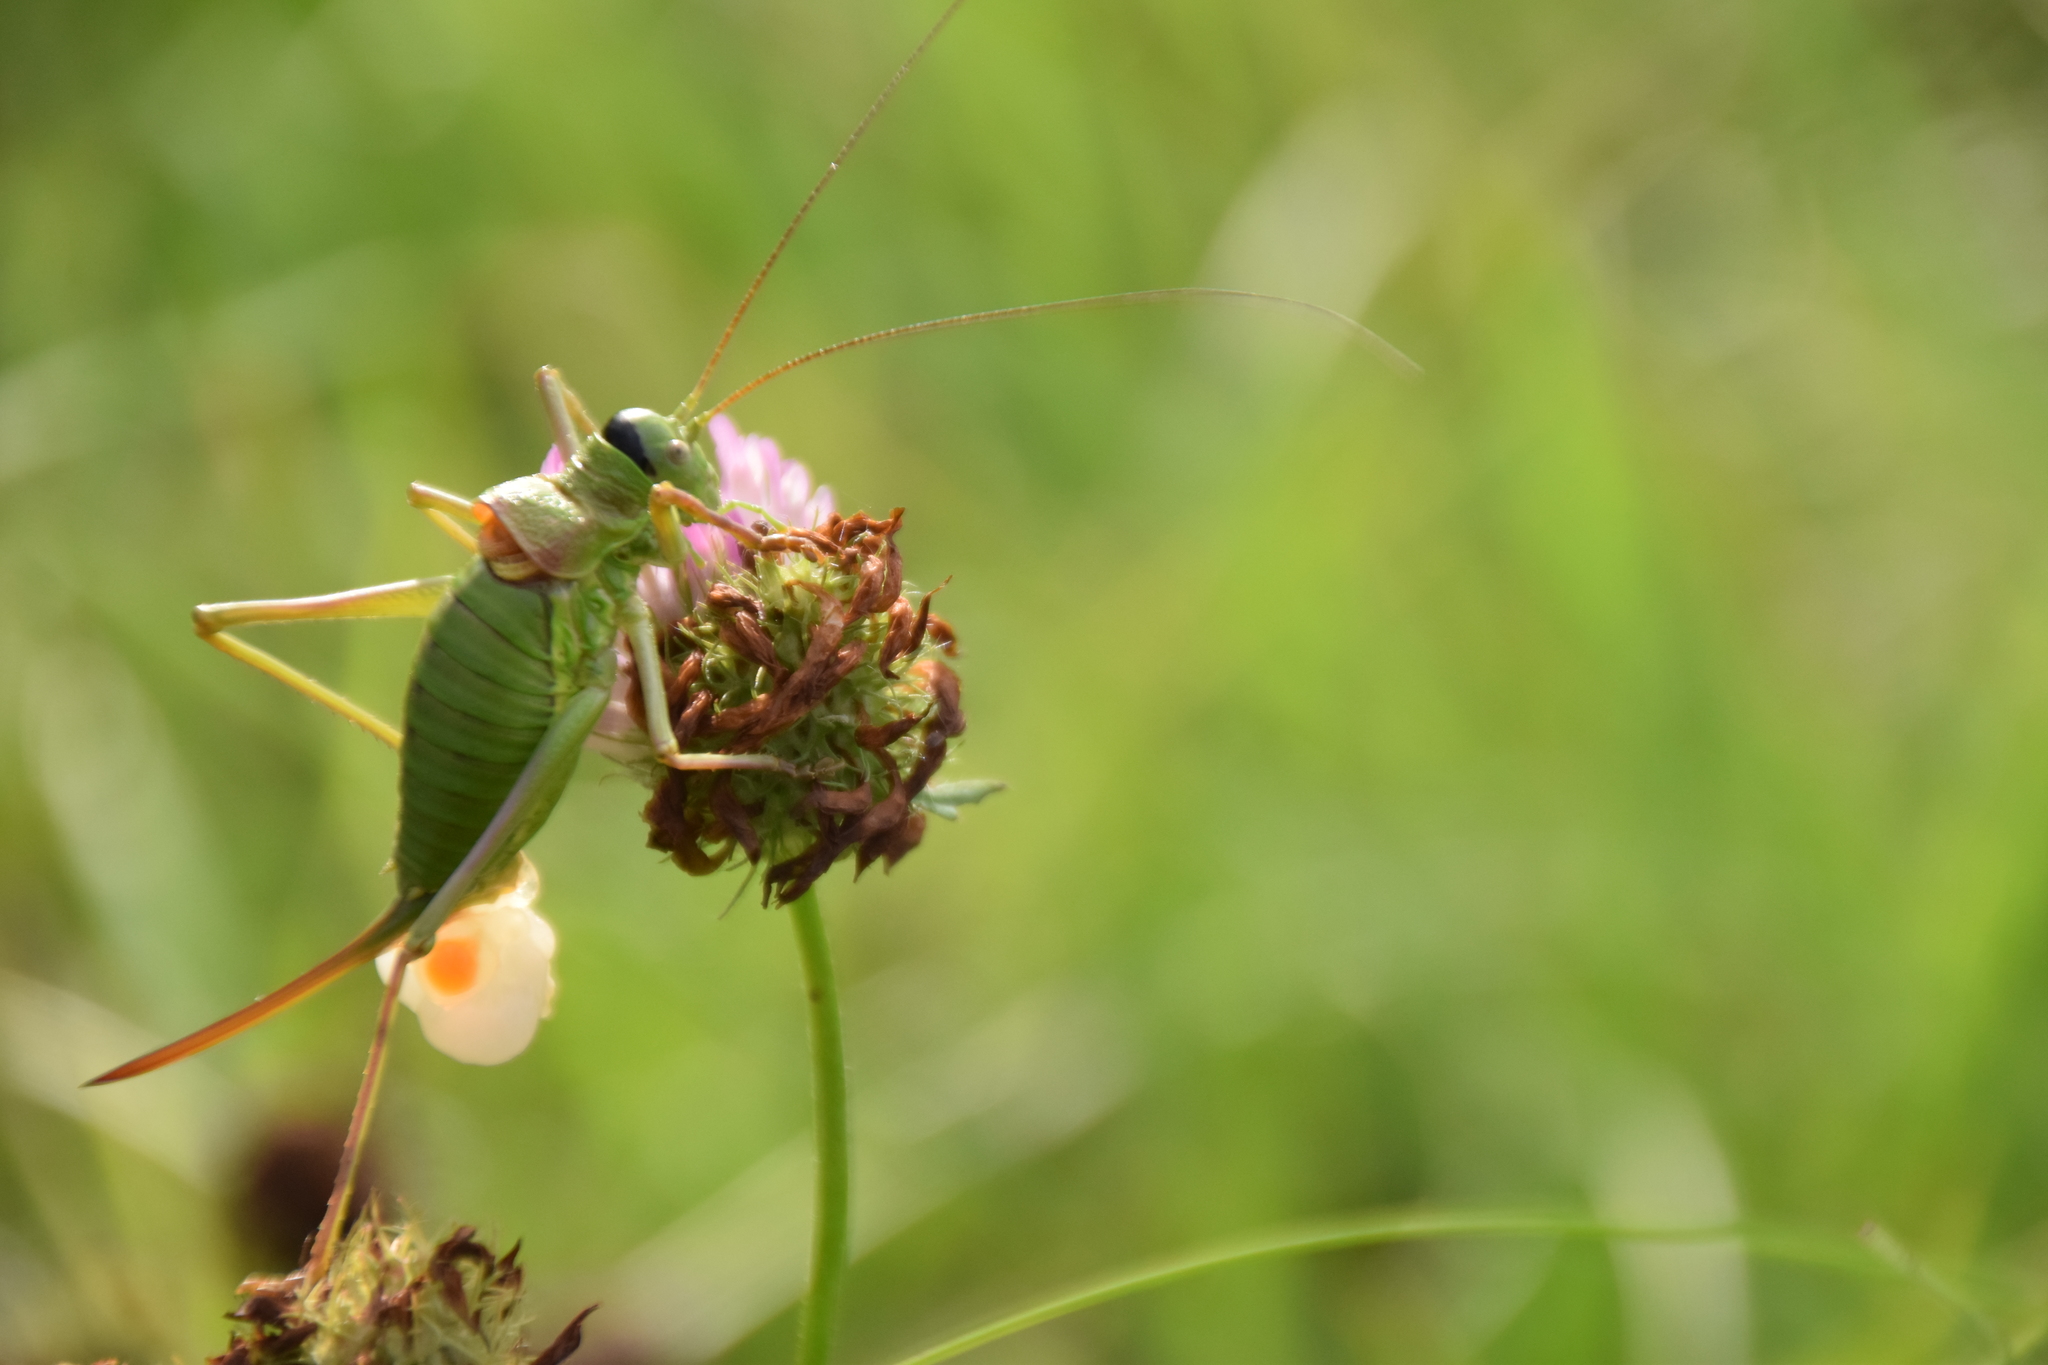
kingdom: Animalia
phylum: Arthropoda
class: Insecta
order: Orthoptera
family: Tettigoniidae
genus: Ephippiger
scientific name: Ephippiger diurnus
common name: Western saddle bush-cricket
